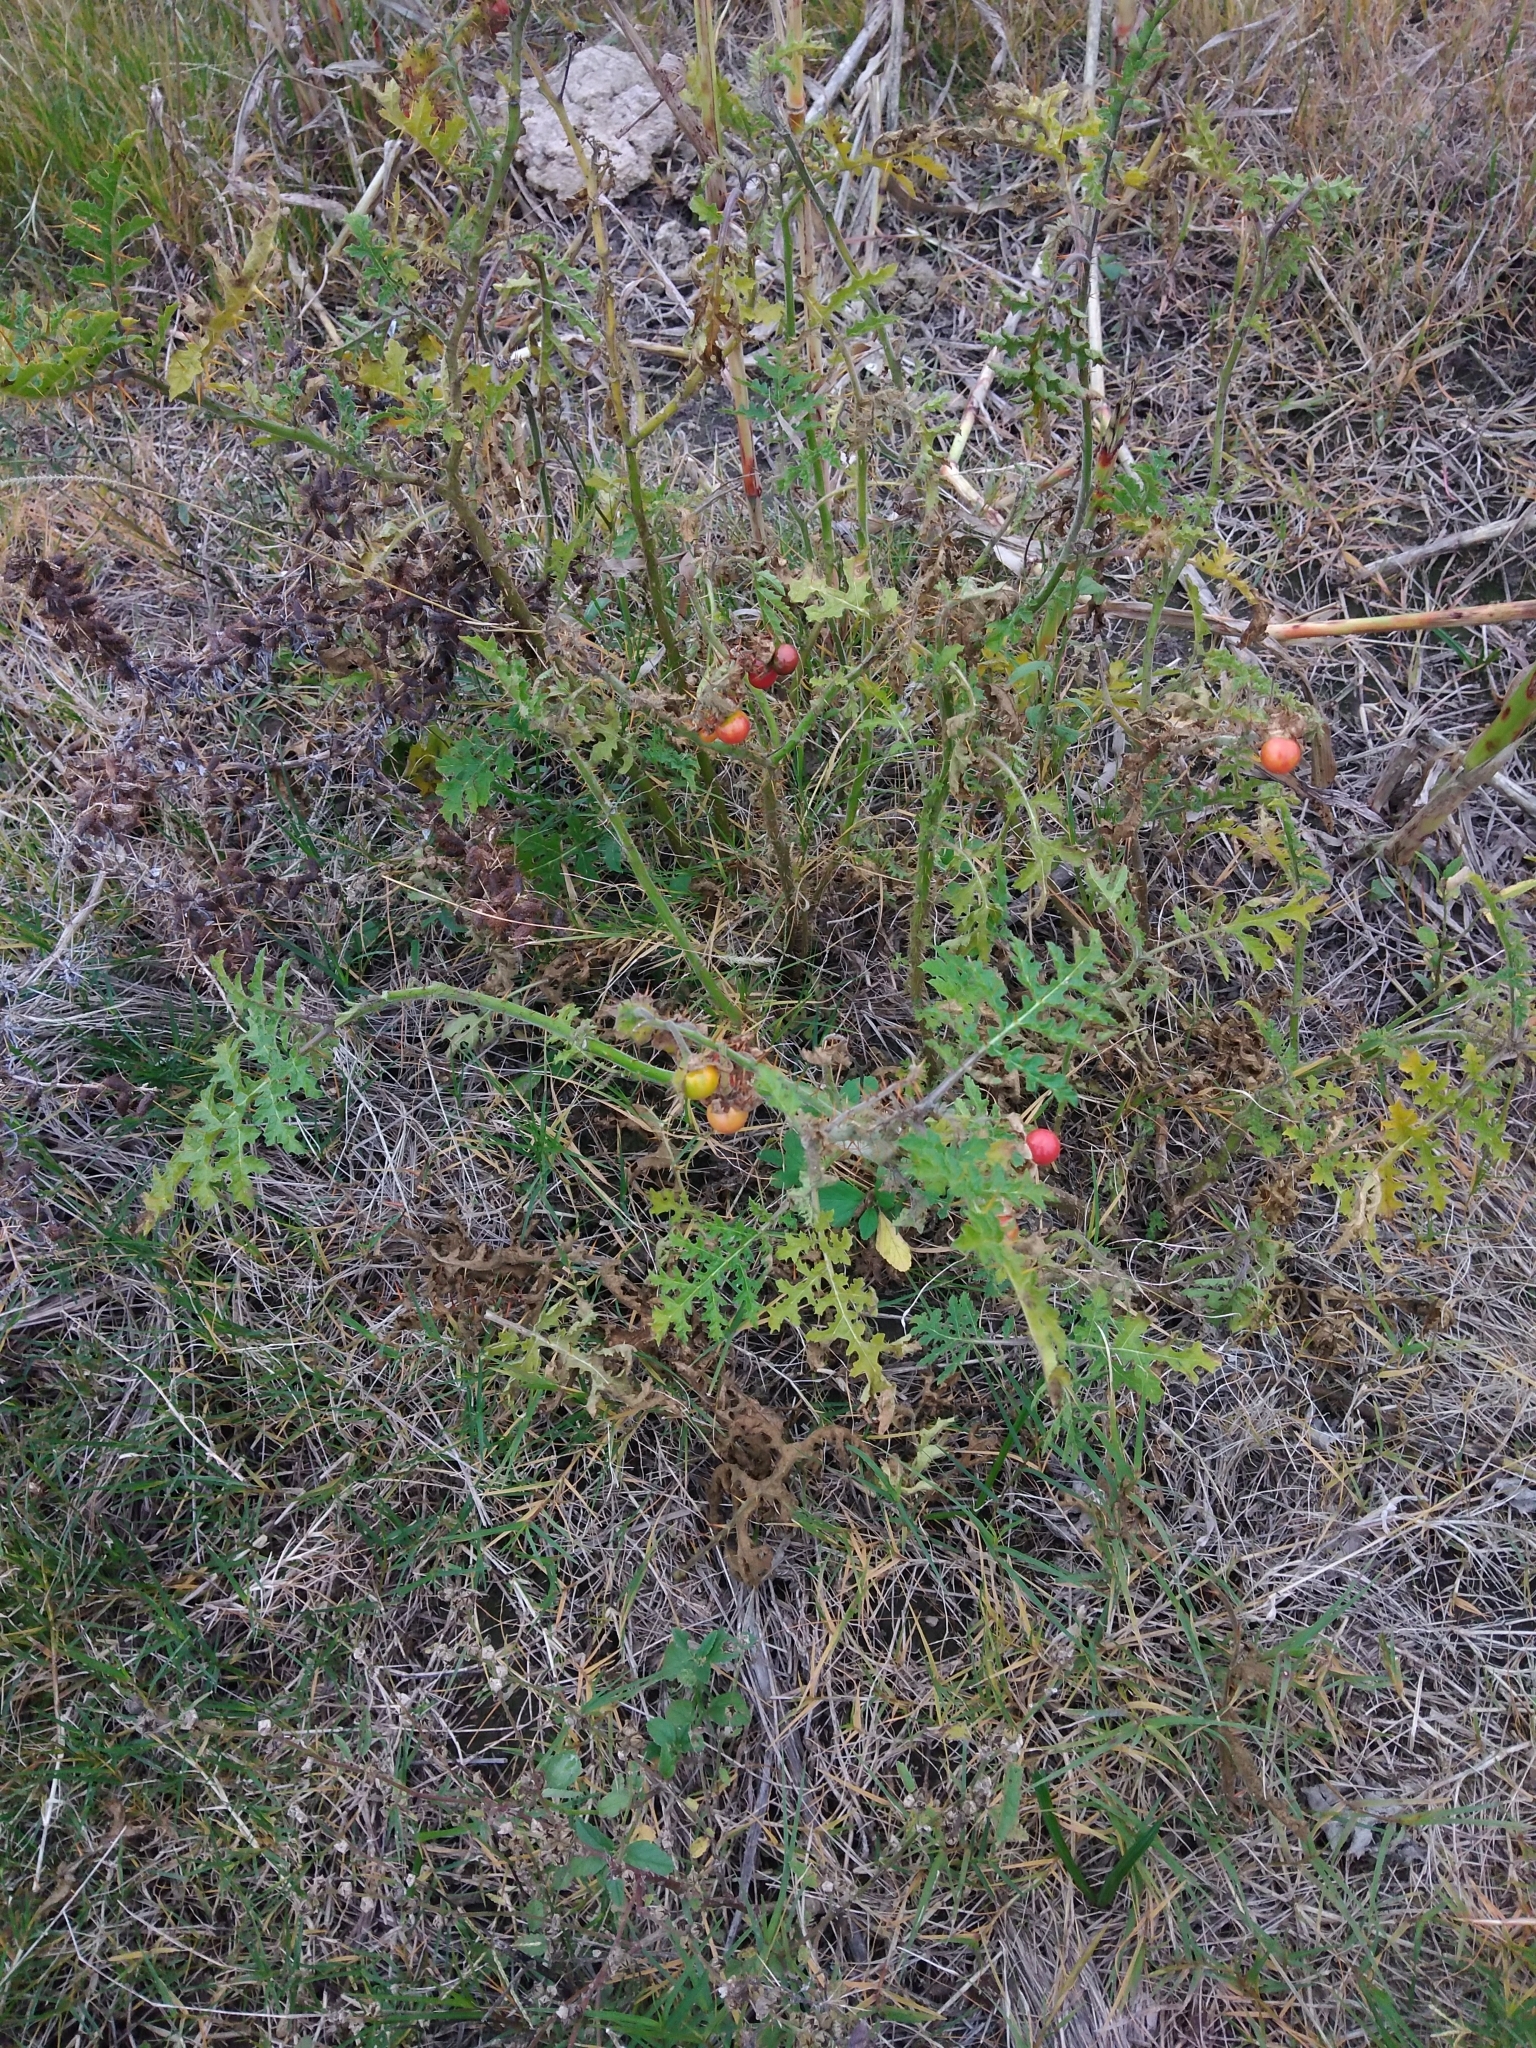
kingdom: Plantae
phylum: Tracheophyta
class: Magnoliopsida
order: Solanales
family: Solanaceae
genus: Solanum
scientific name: Solanum sisymbriifolium
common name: Red buffalo-bur
